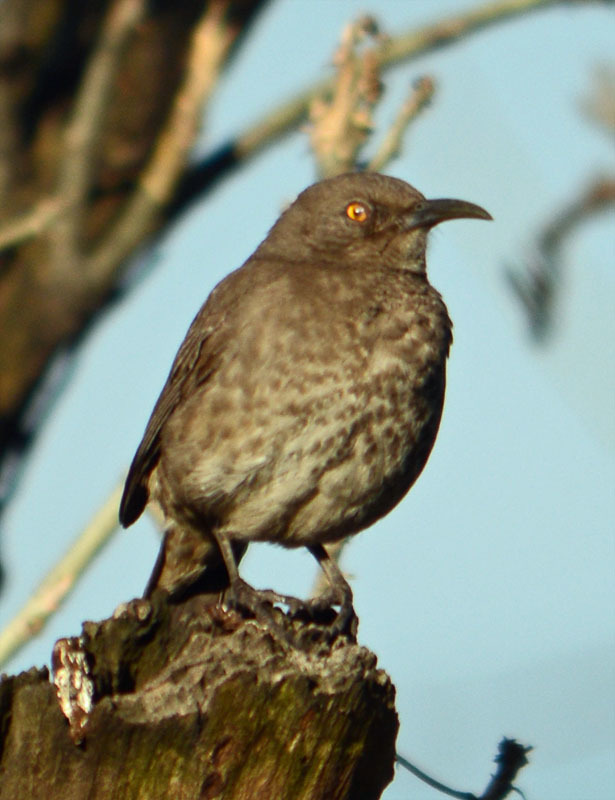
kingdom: Animalia
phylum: Chordata
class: Aves
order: Passeriformes
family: Mimidae
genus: Toxostoma
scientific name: Toxostoma curvirostre
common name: Curve-billed thrasher
